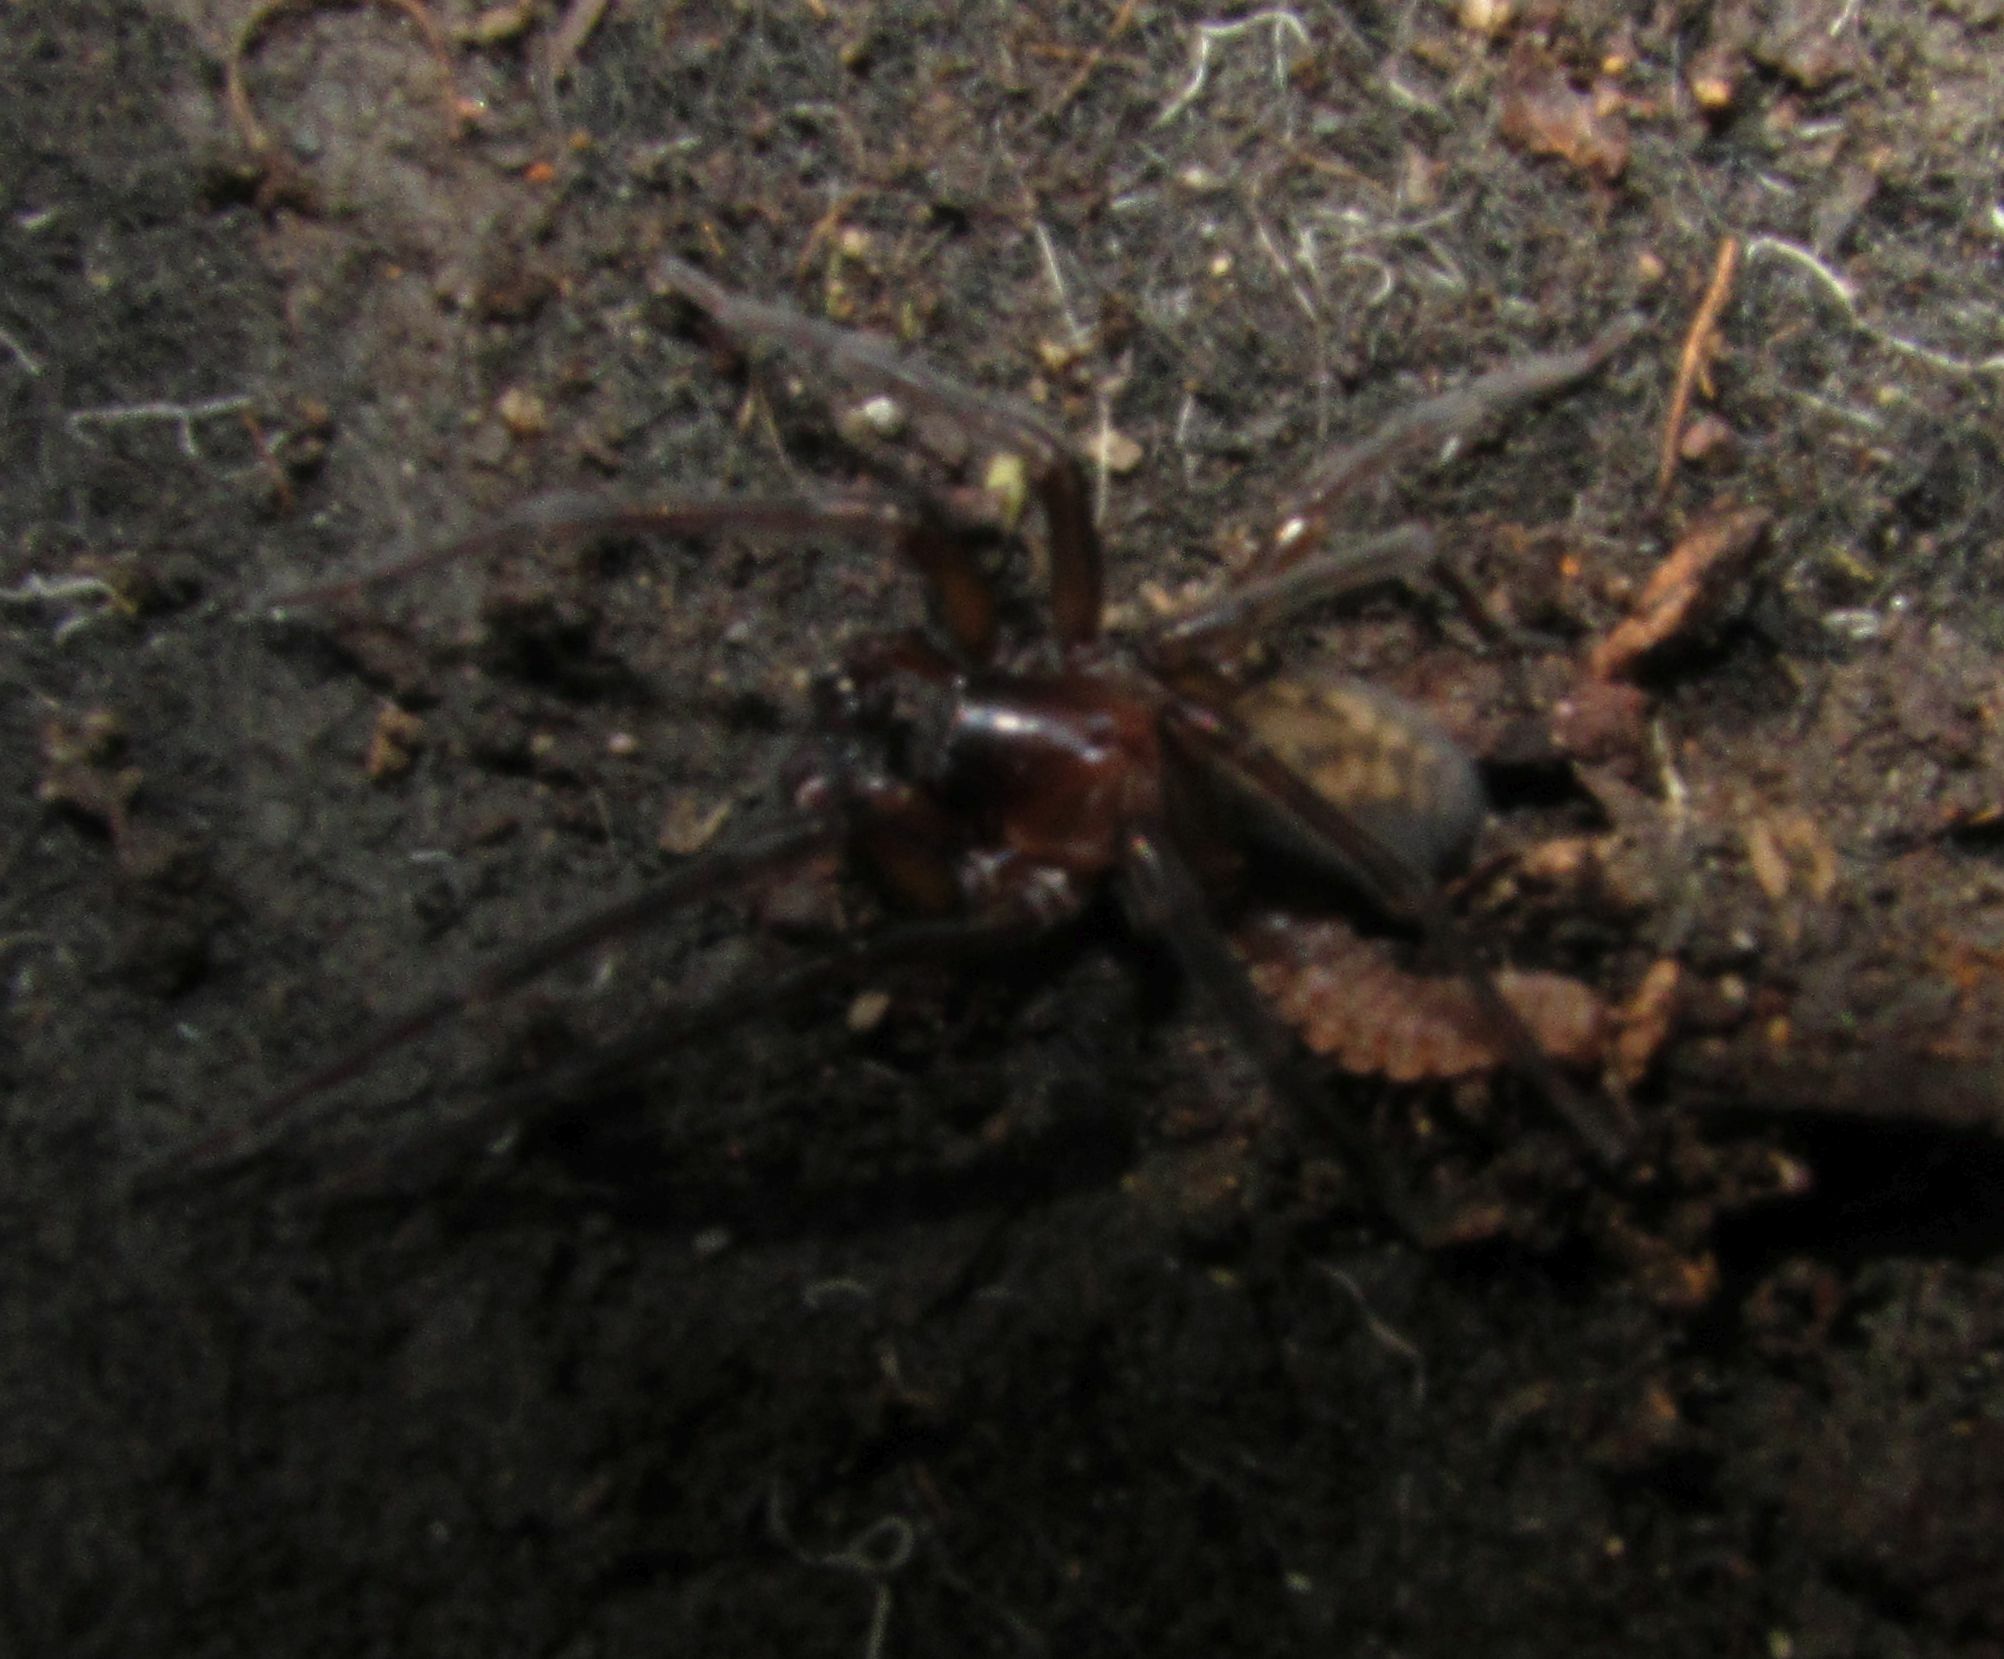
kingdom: Animalia
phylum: Arthropoda
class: Arachnida
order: Araneae
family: Amaurobiidae
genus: Amaurobius
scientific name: Amaurobius ferox
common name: Black laceweaver
